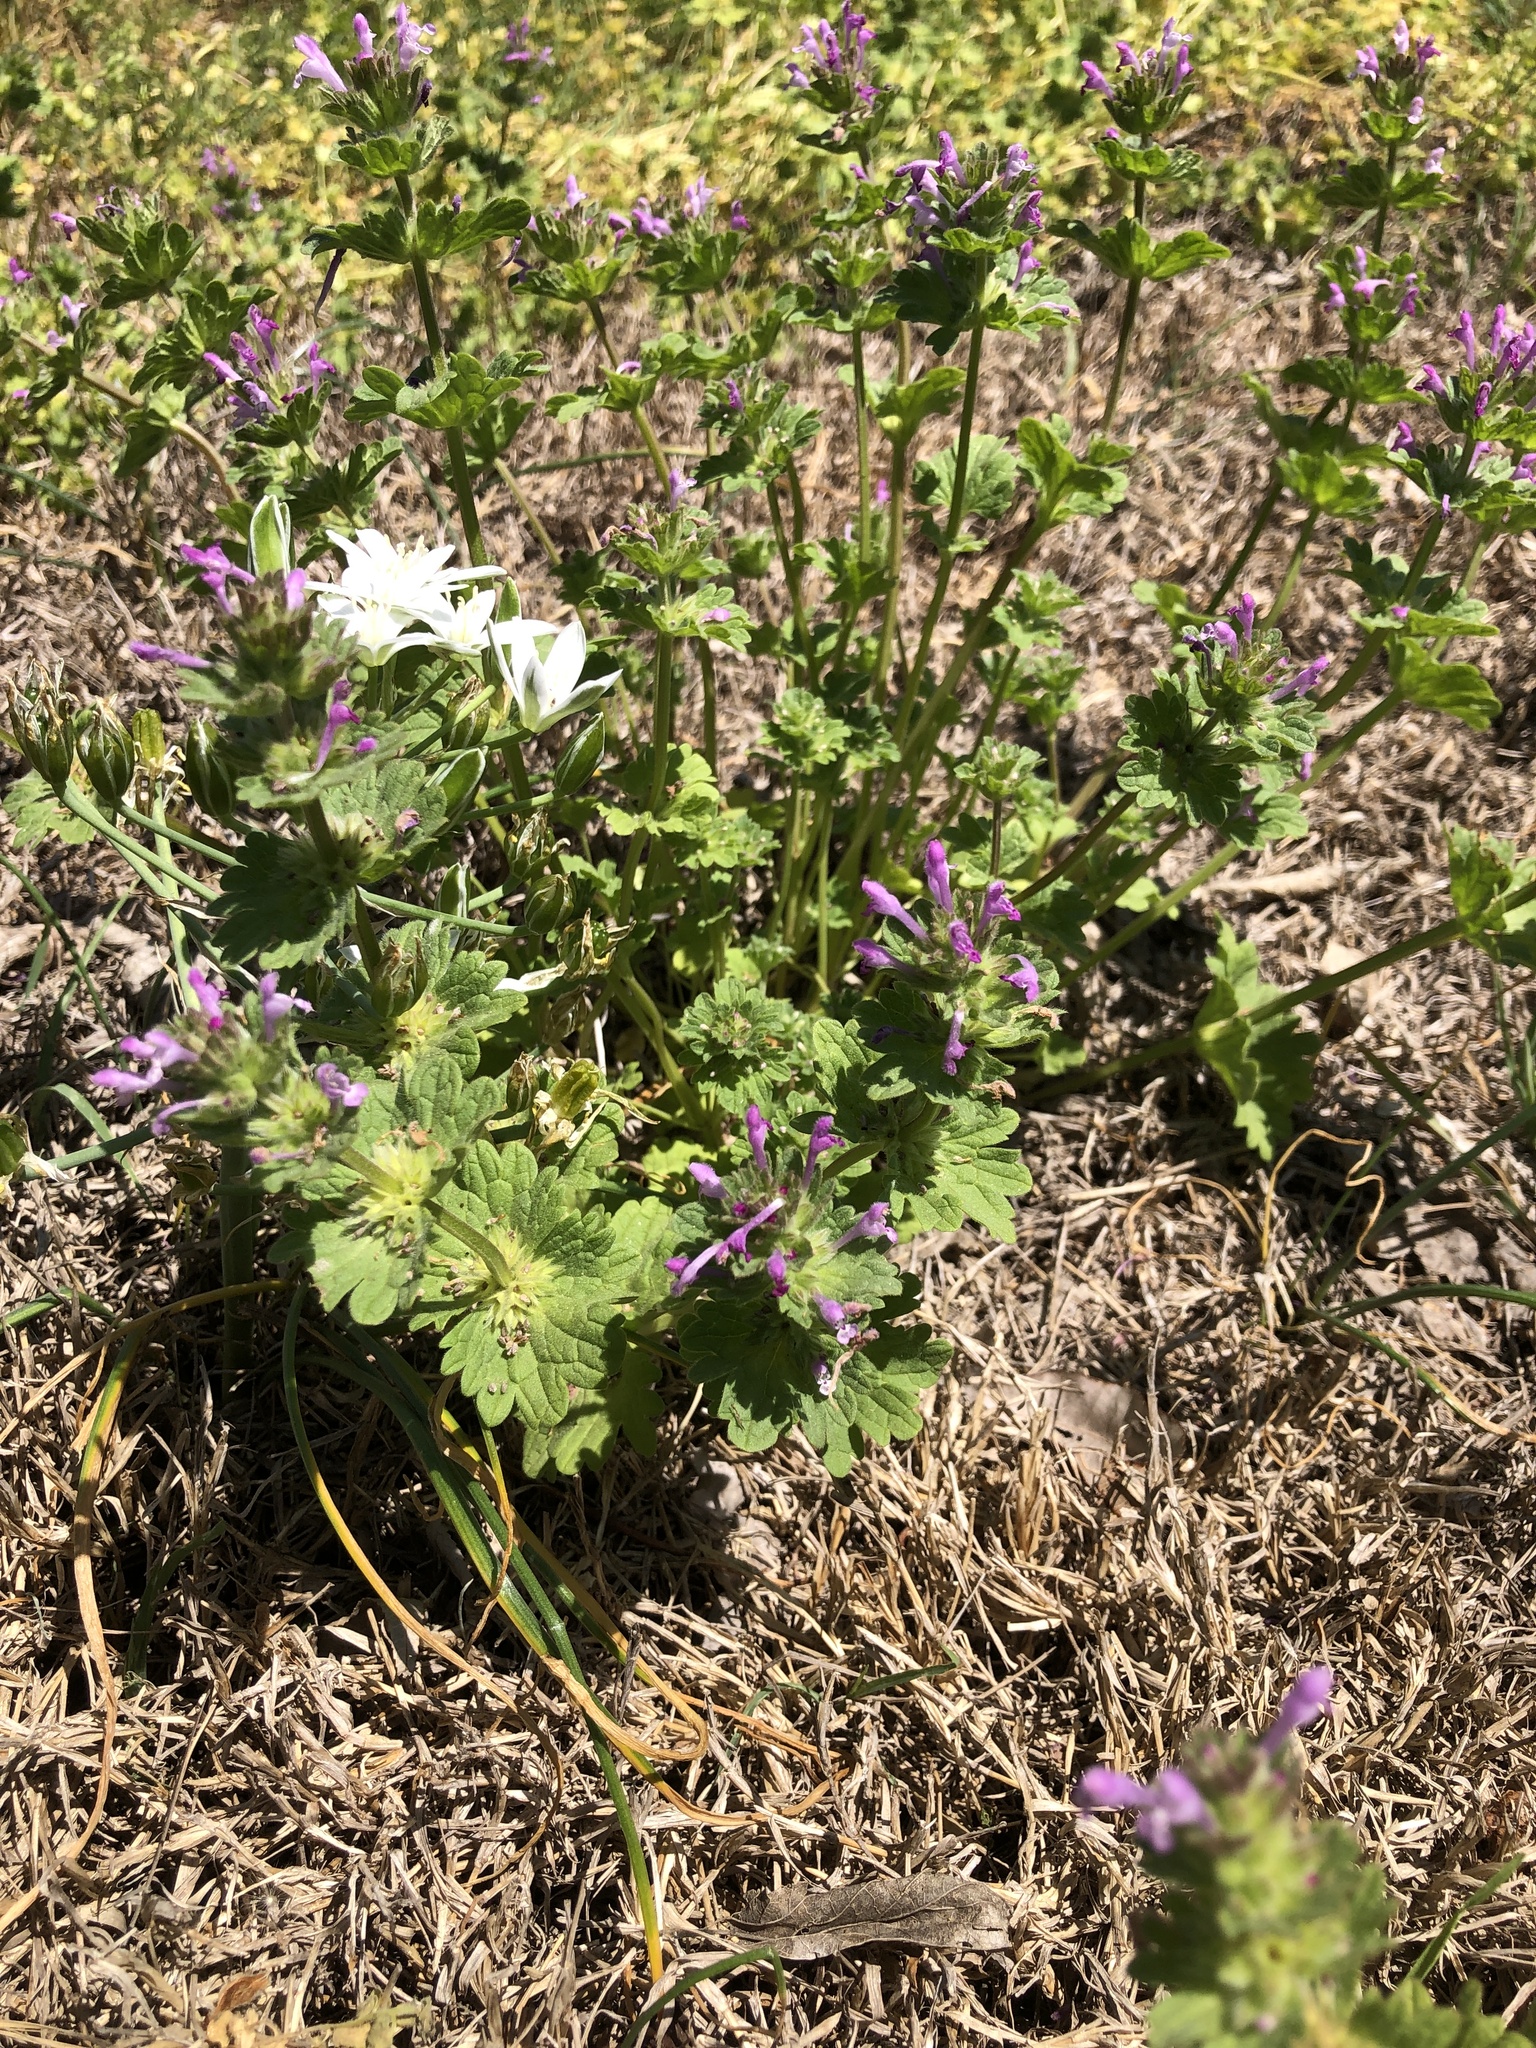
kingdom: Plantae
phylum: Tracheophyta
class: Magnoliopsida
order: Lamiales
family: Lamiaceae
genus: Lamium
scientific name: Lamium amplexicaule
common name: Henbit dead-nettle
